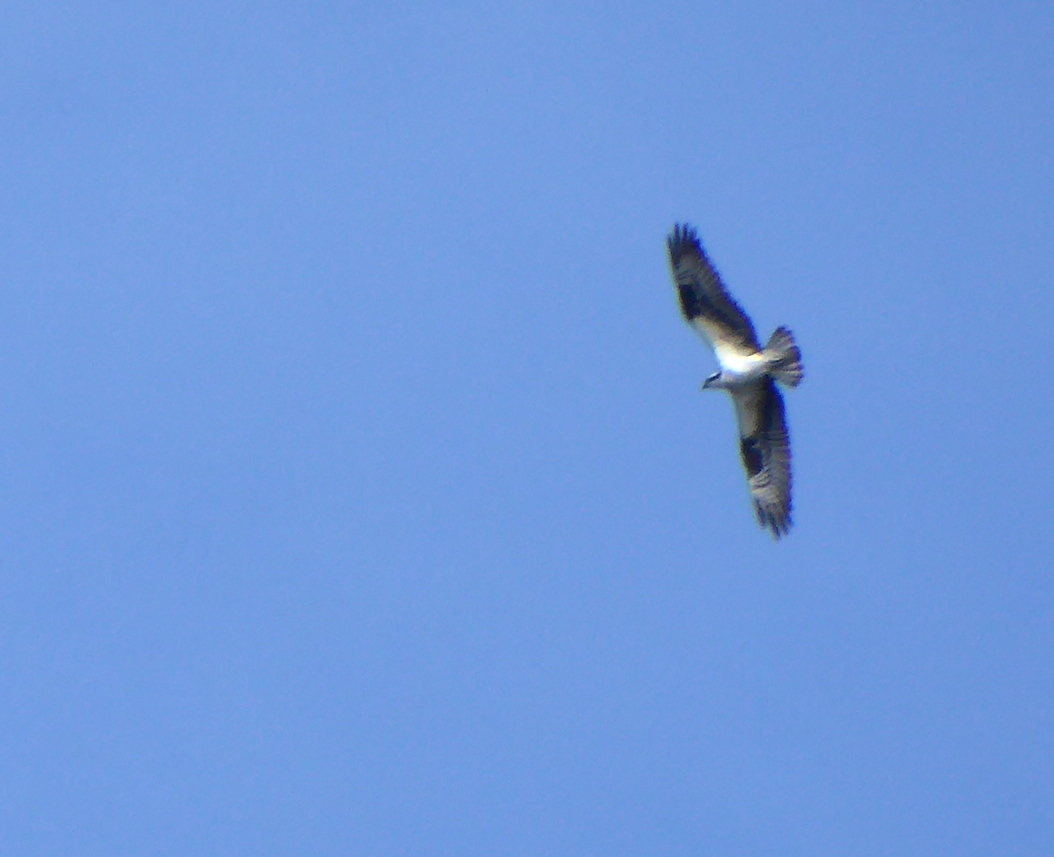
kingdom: Animalia
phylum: Chordata
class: Aves
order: Accipitriformes
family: Pandionidae
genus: Pandion
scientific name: Pandion haliaetus
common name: Osprey
